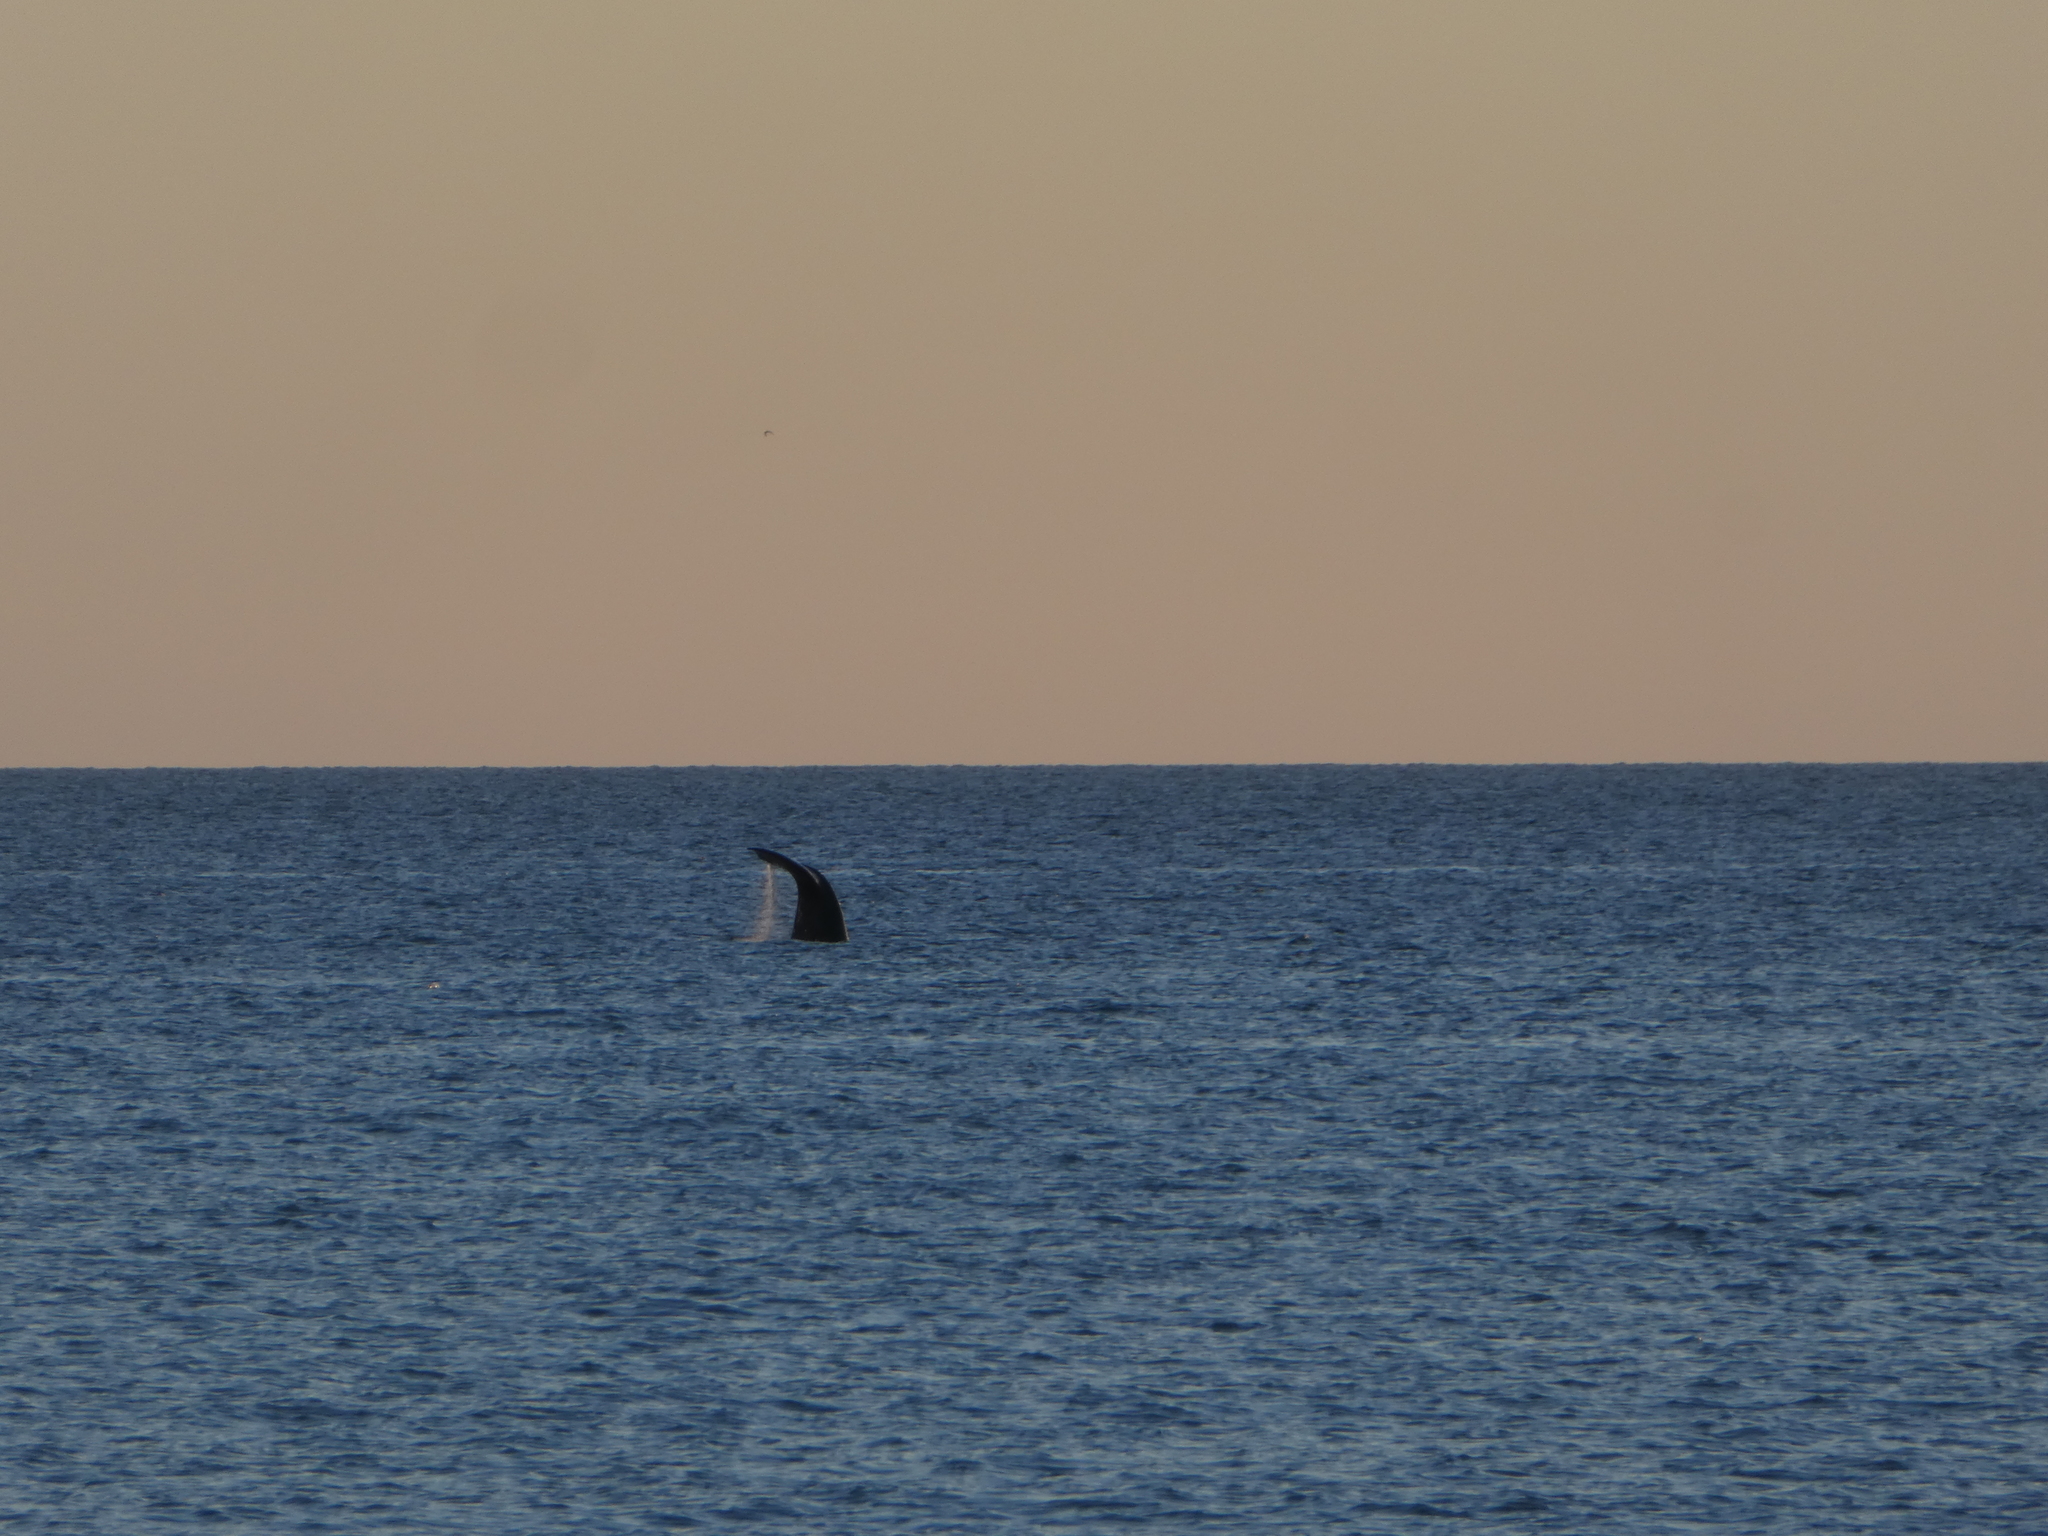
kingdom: Animalia
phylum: Chordata
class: Mammalia
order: Cetacea
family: Balaenidae
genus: Eubalaena
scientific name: Eubalaena australis
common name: Southern right whale
